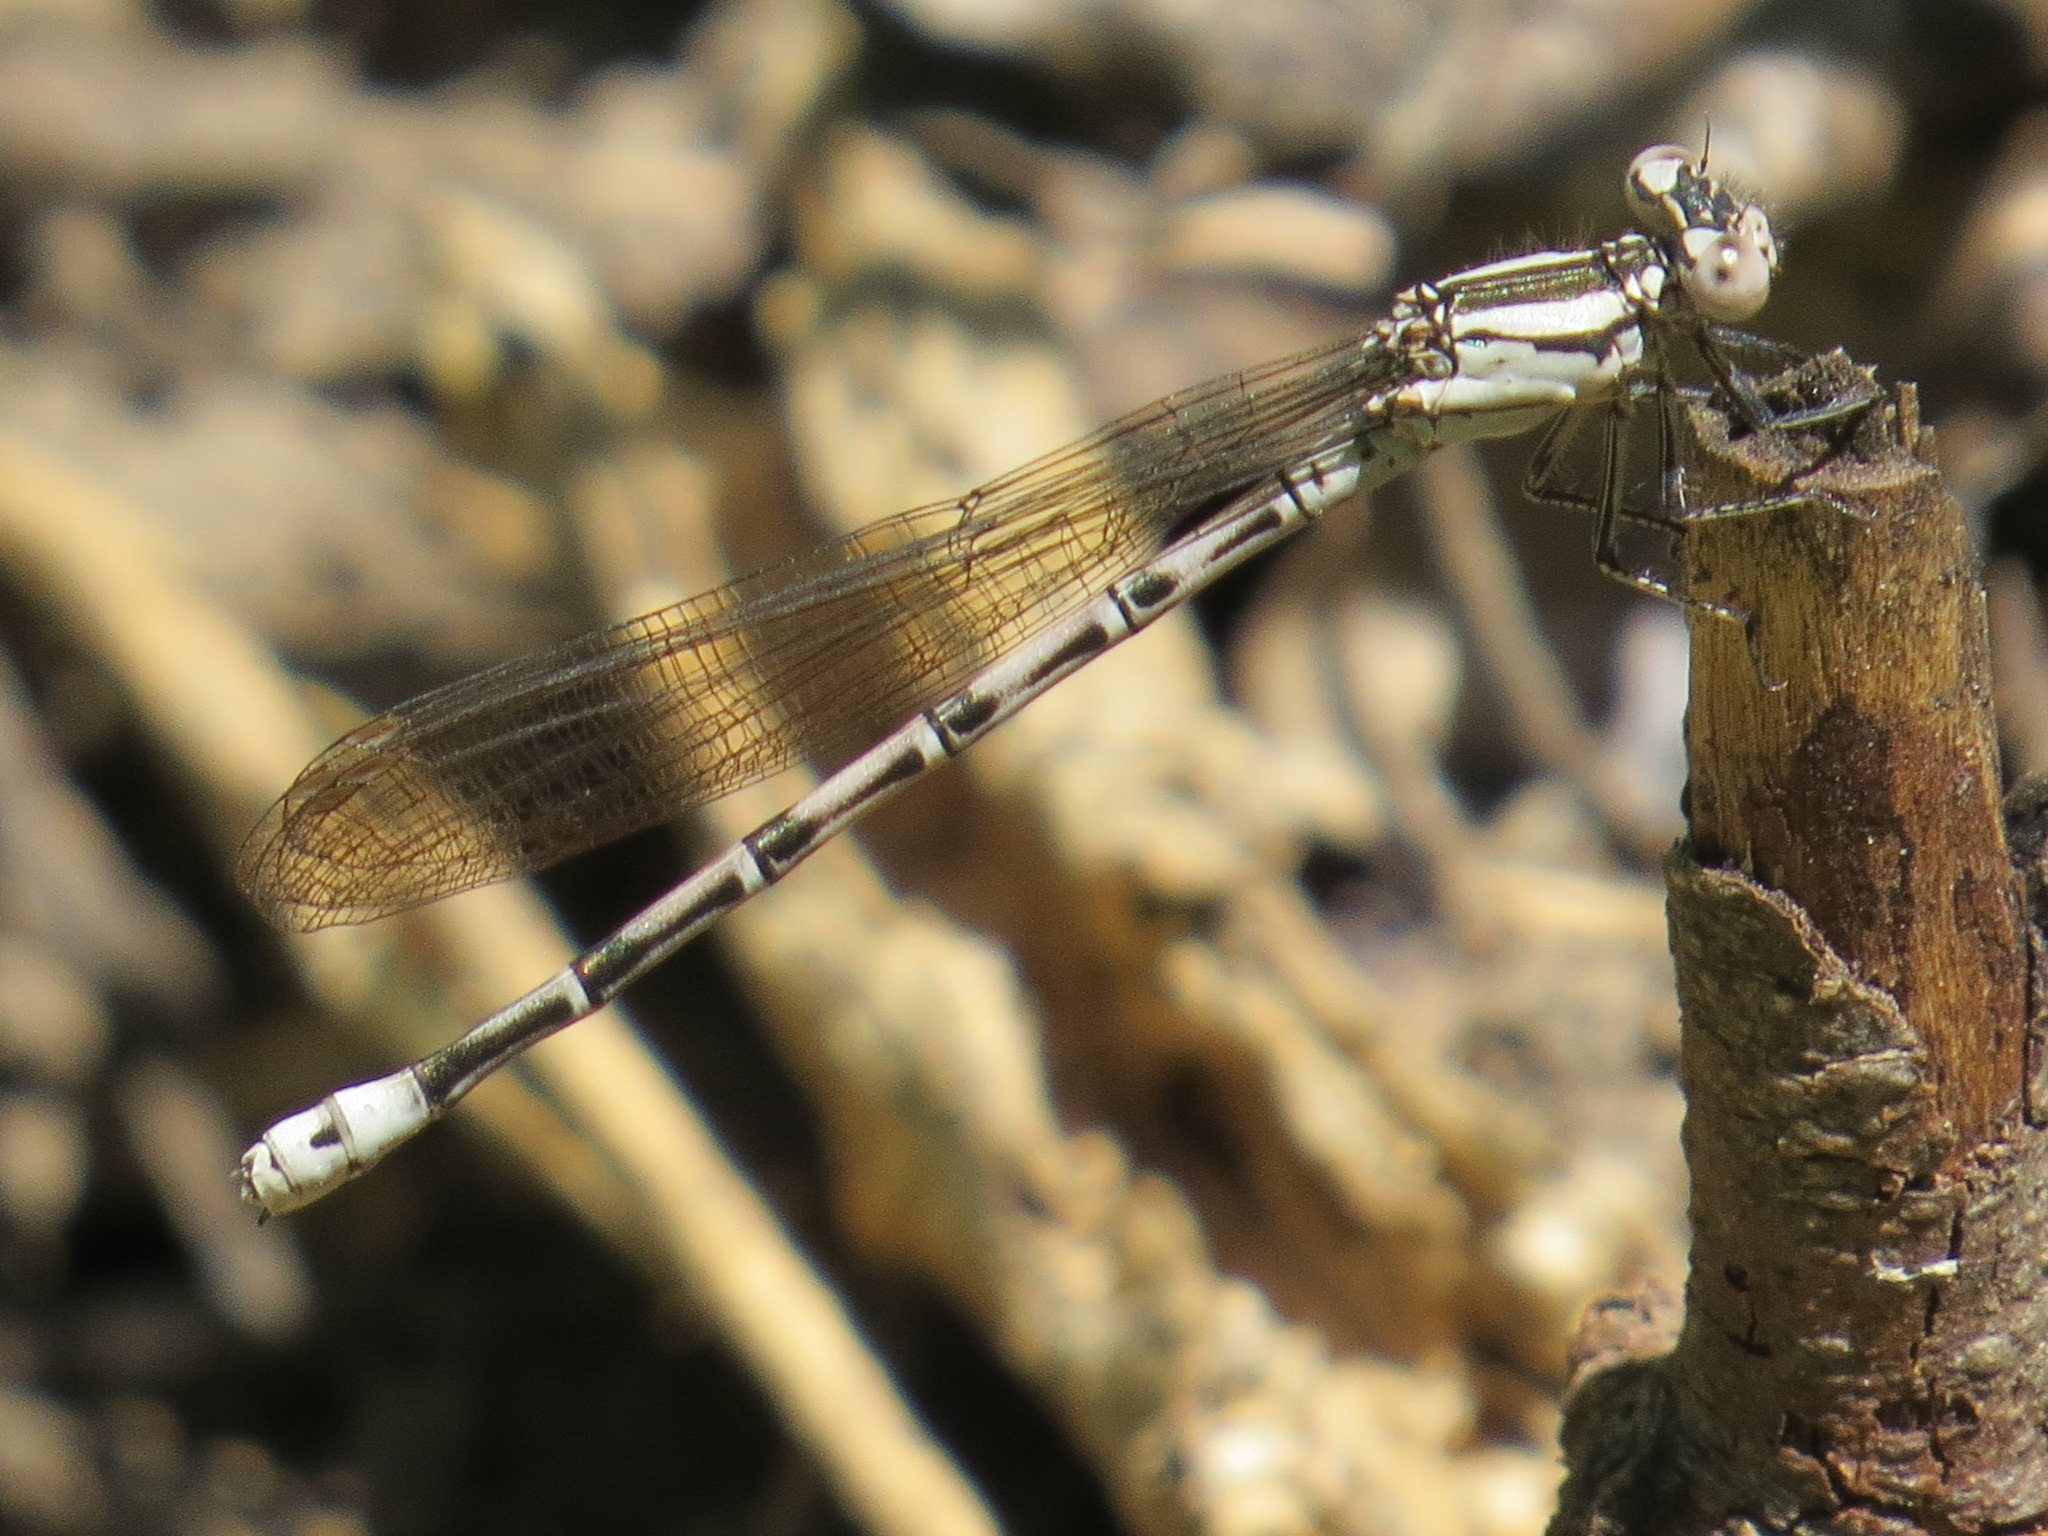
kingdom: Animalia
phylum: Arthropoda
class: Insecta
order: Odonata
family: Coenagrionidae
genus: Argia
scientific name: Argia vivida
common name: Vivid dancer
